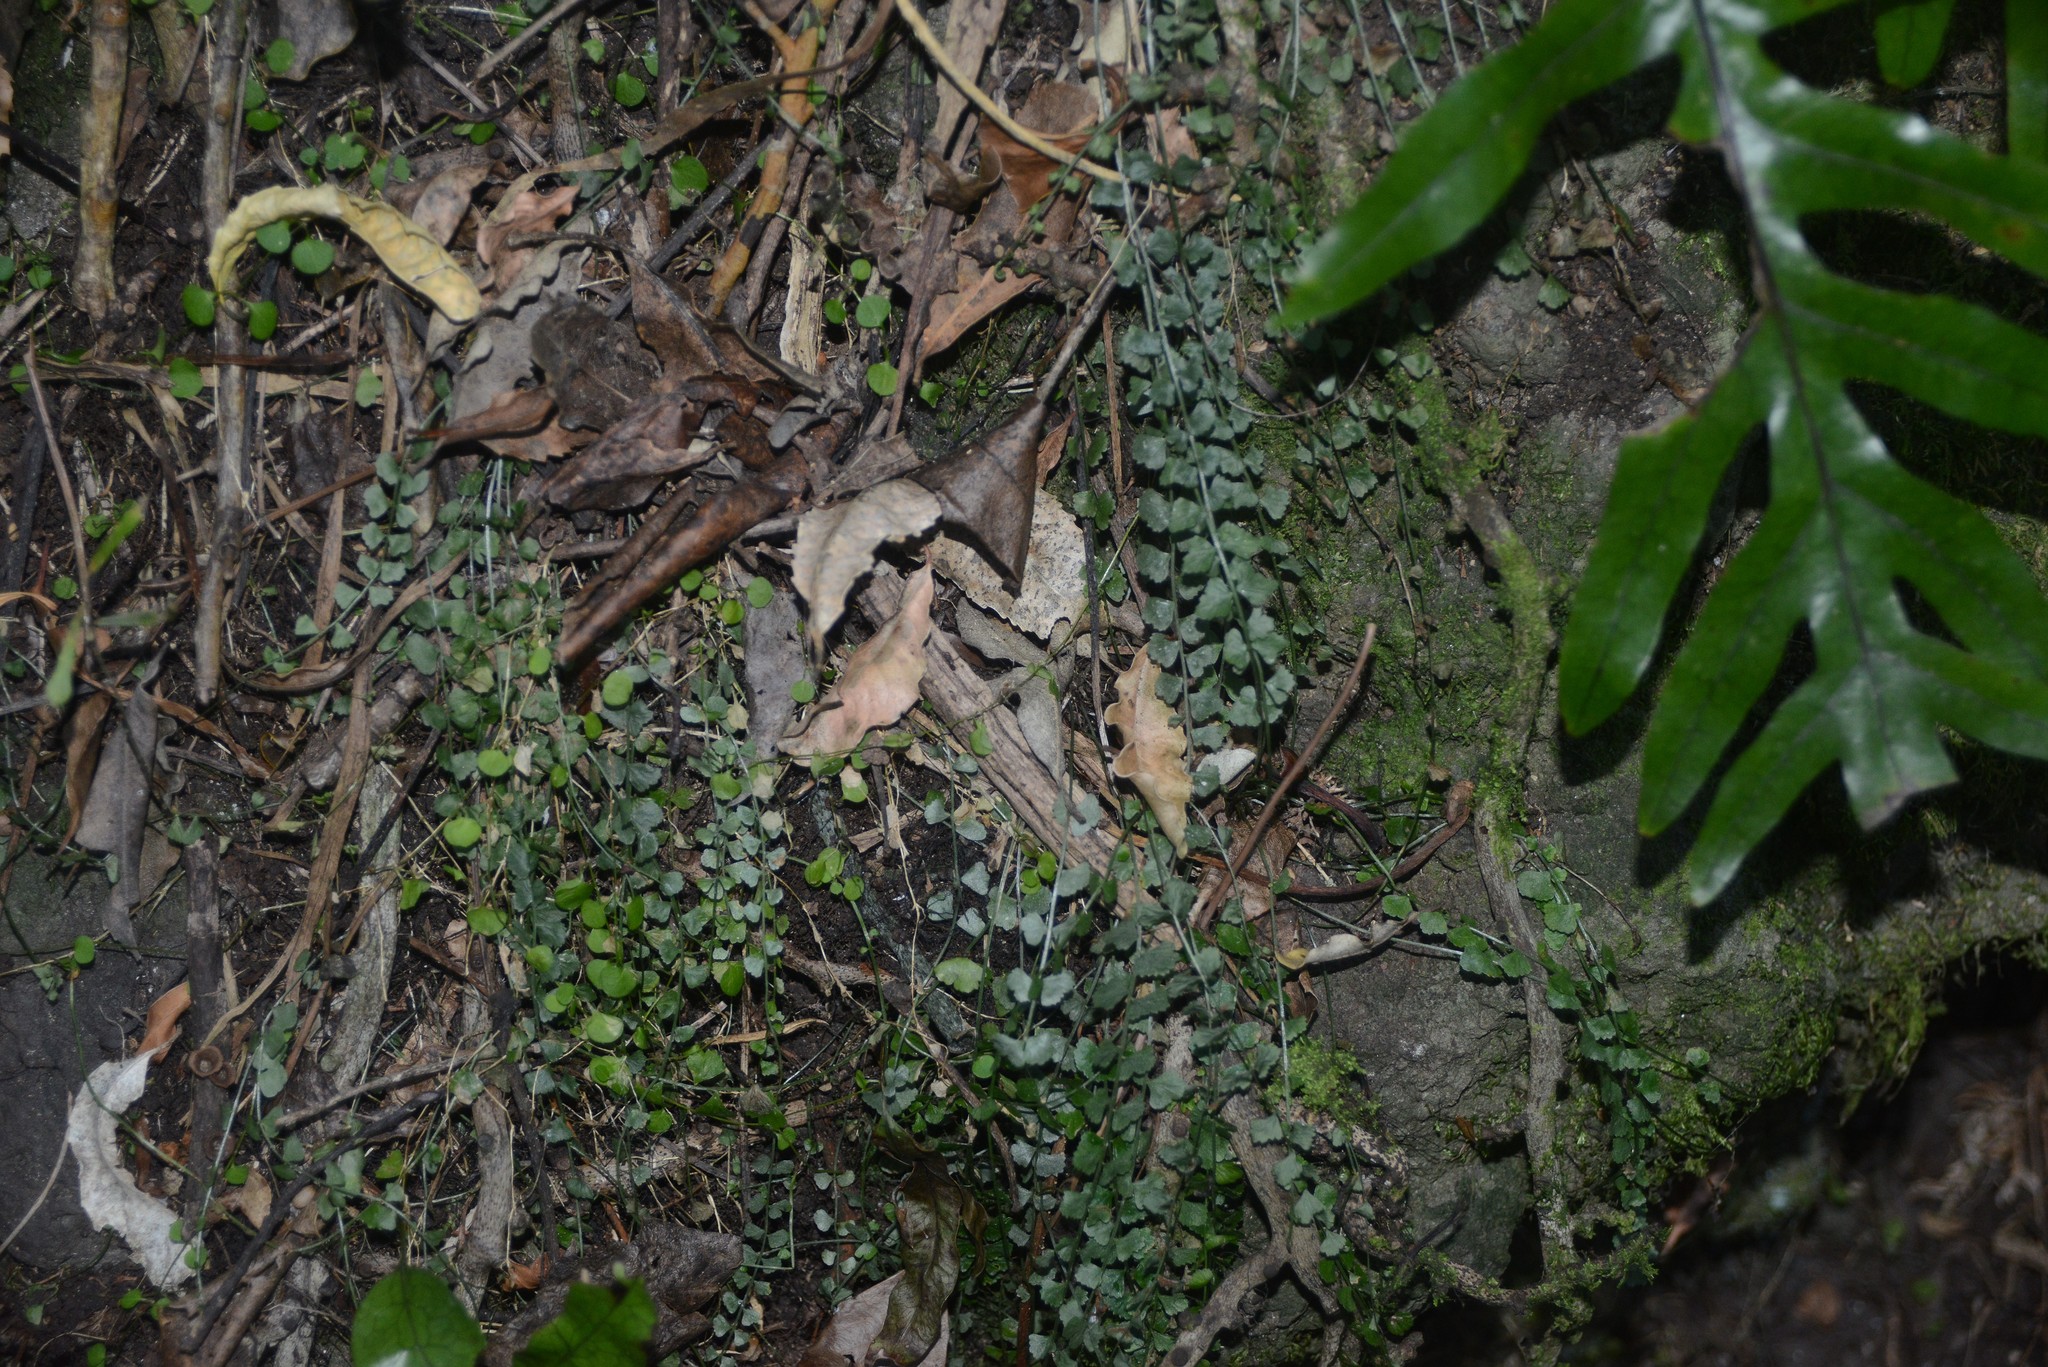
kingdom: Plantae
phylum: Tracheophyta
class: Polypodiopsida
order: Polypodiales
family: Aspleniaceae
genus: Asplenium
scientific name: Asplenium flabellifolium
